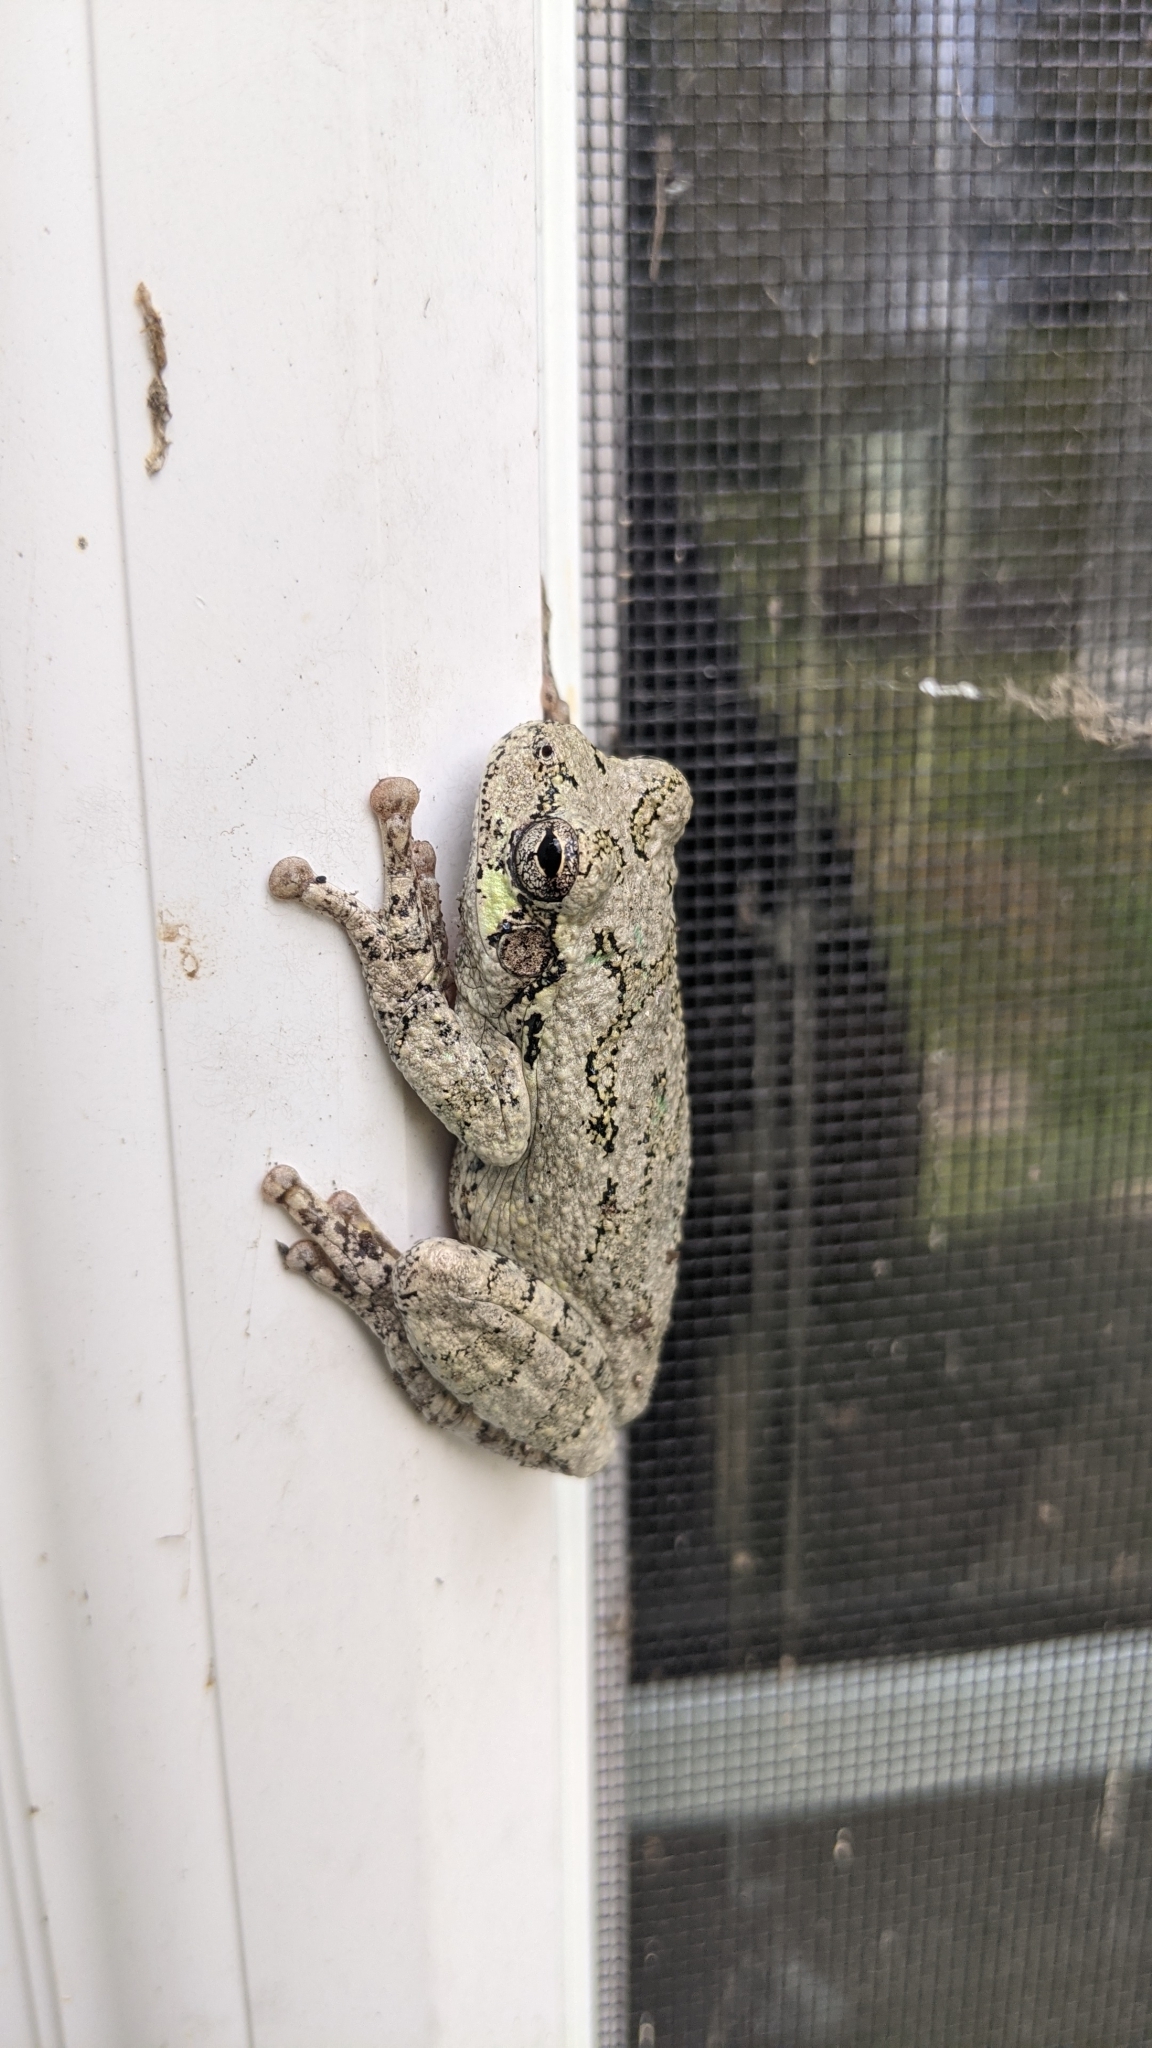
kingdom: Animalia
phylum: Chordata
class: Amphibia
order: Anura
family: Hylidae
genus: Dryophytes
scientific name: Dryophytes chrysoscelis
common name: Cope's gray treefrog
